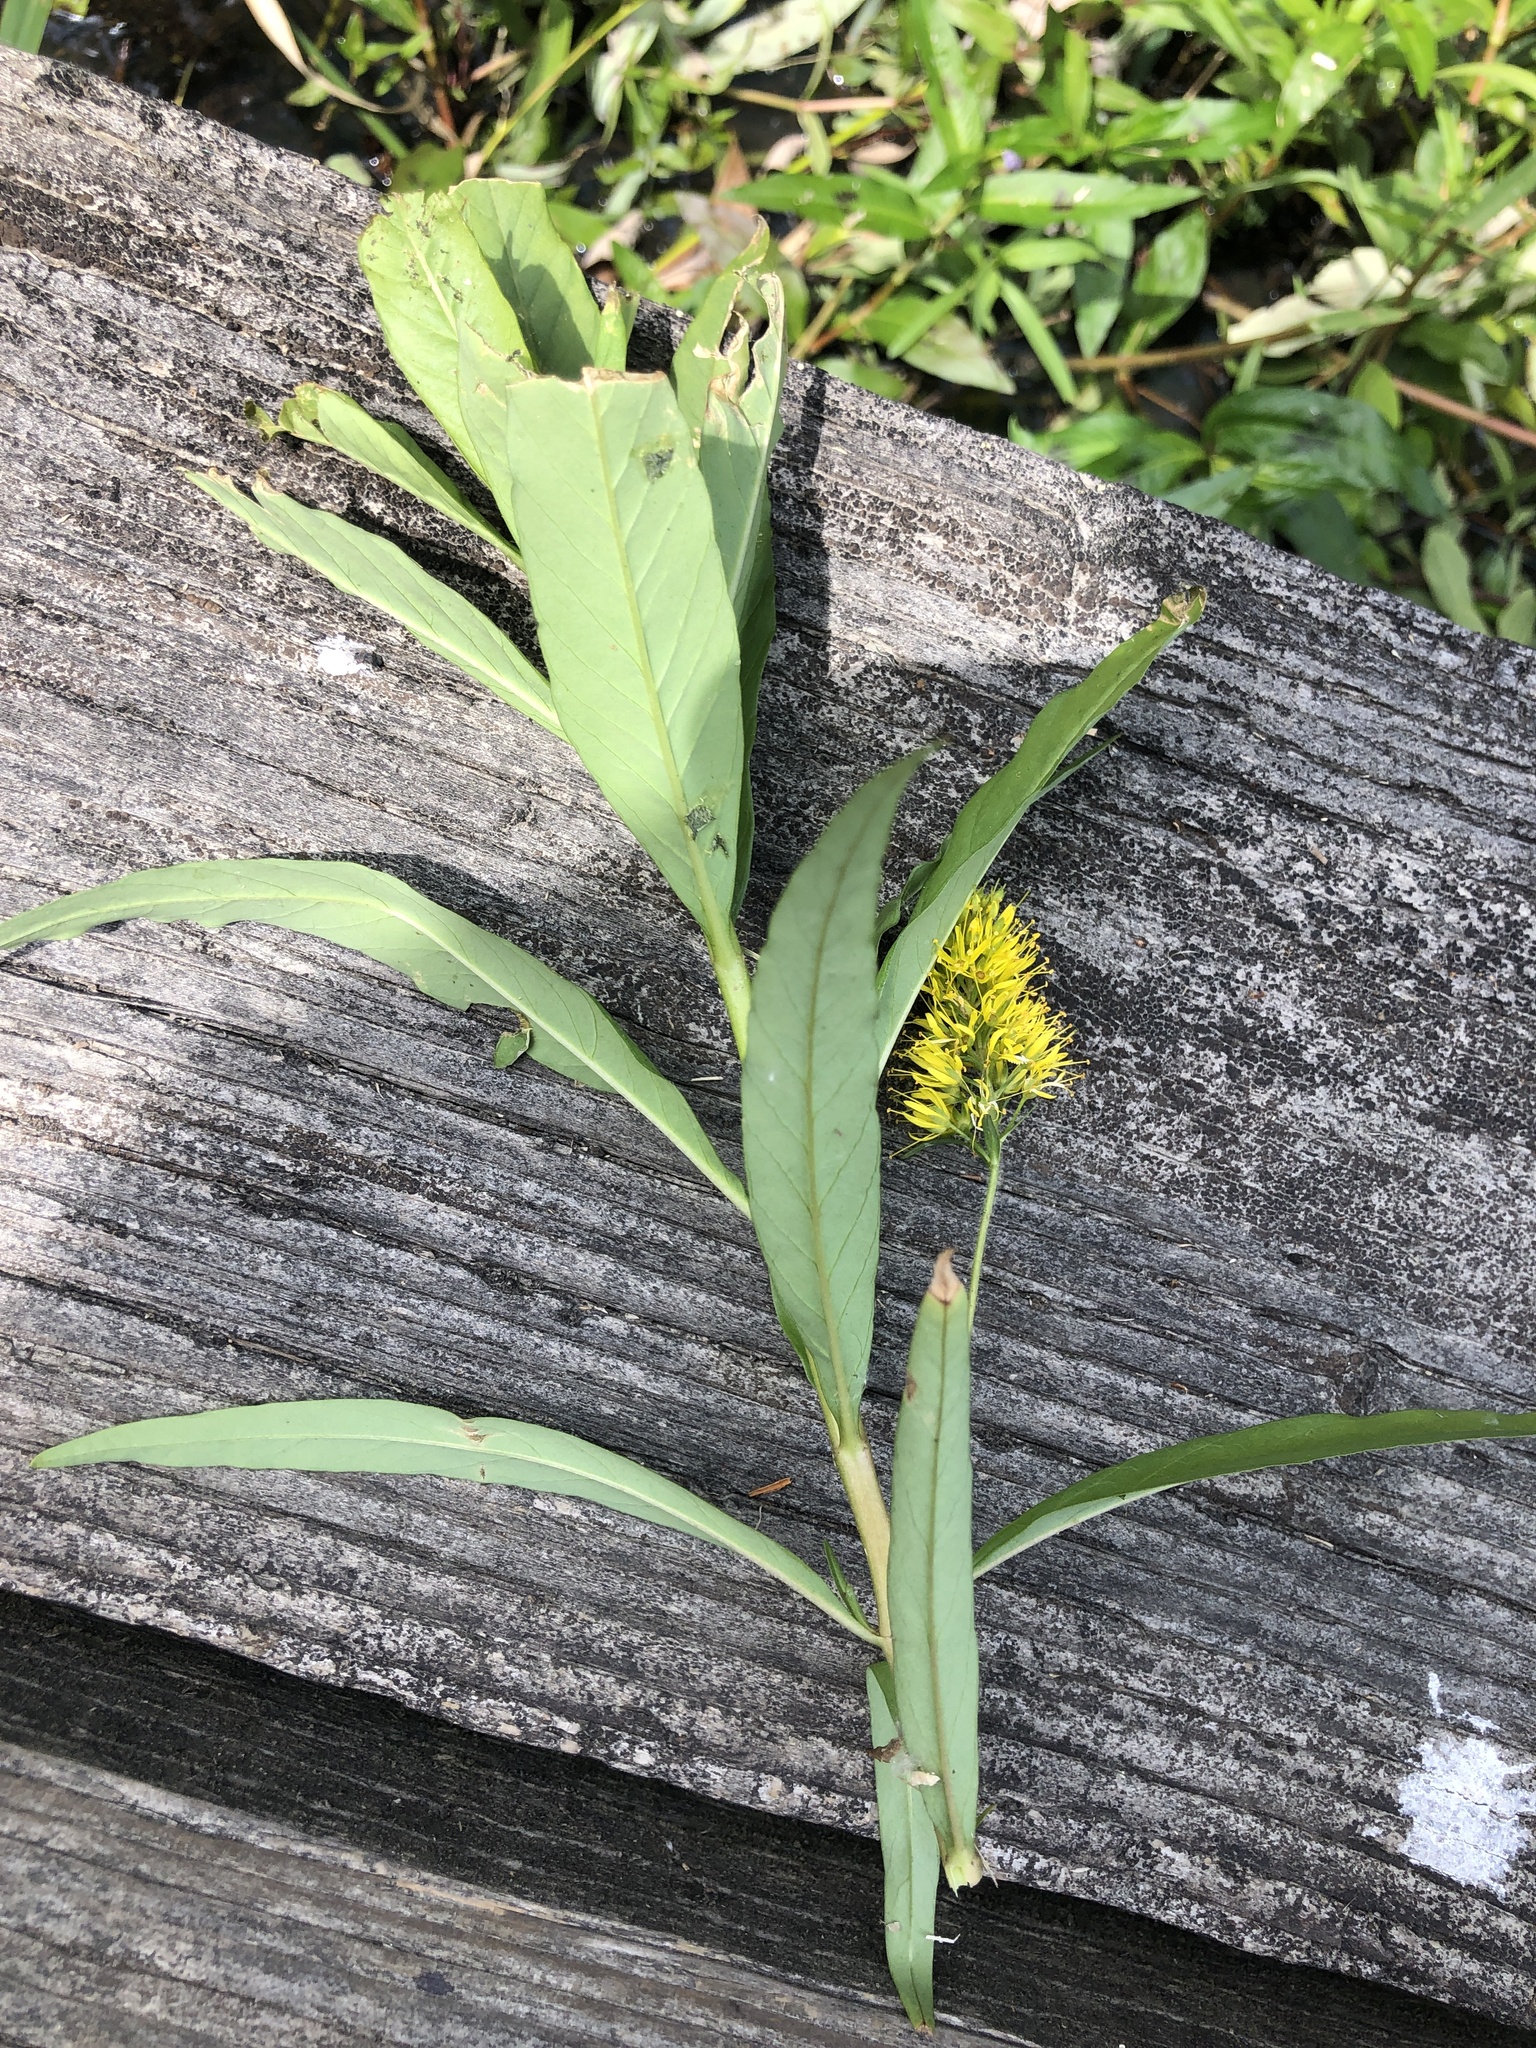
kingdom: Plantae
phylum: Tracheophyta
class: Magnoliopsida
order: Ericales
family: Primulaceae
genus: Lysimachia
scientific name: Lysimachia thyrsiflora
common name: Tufted loosestrife
